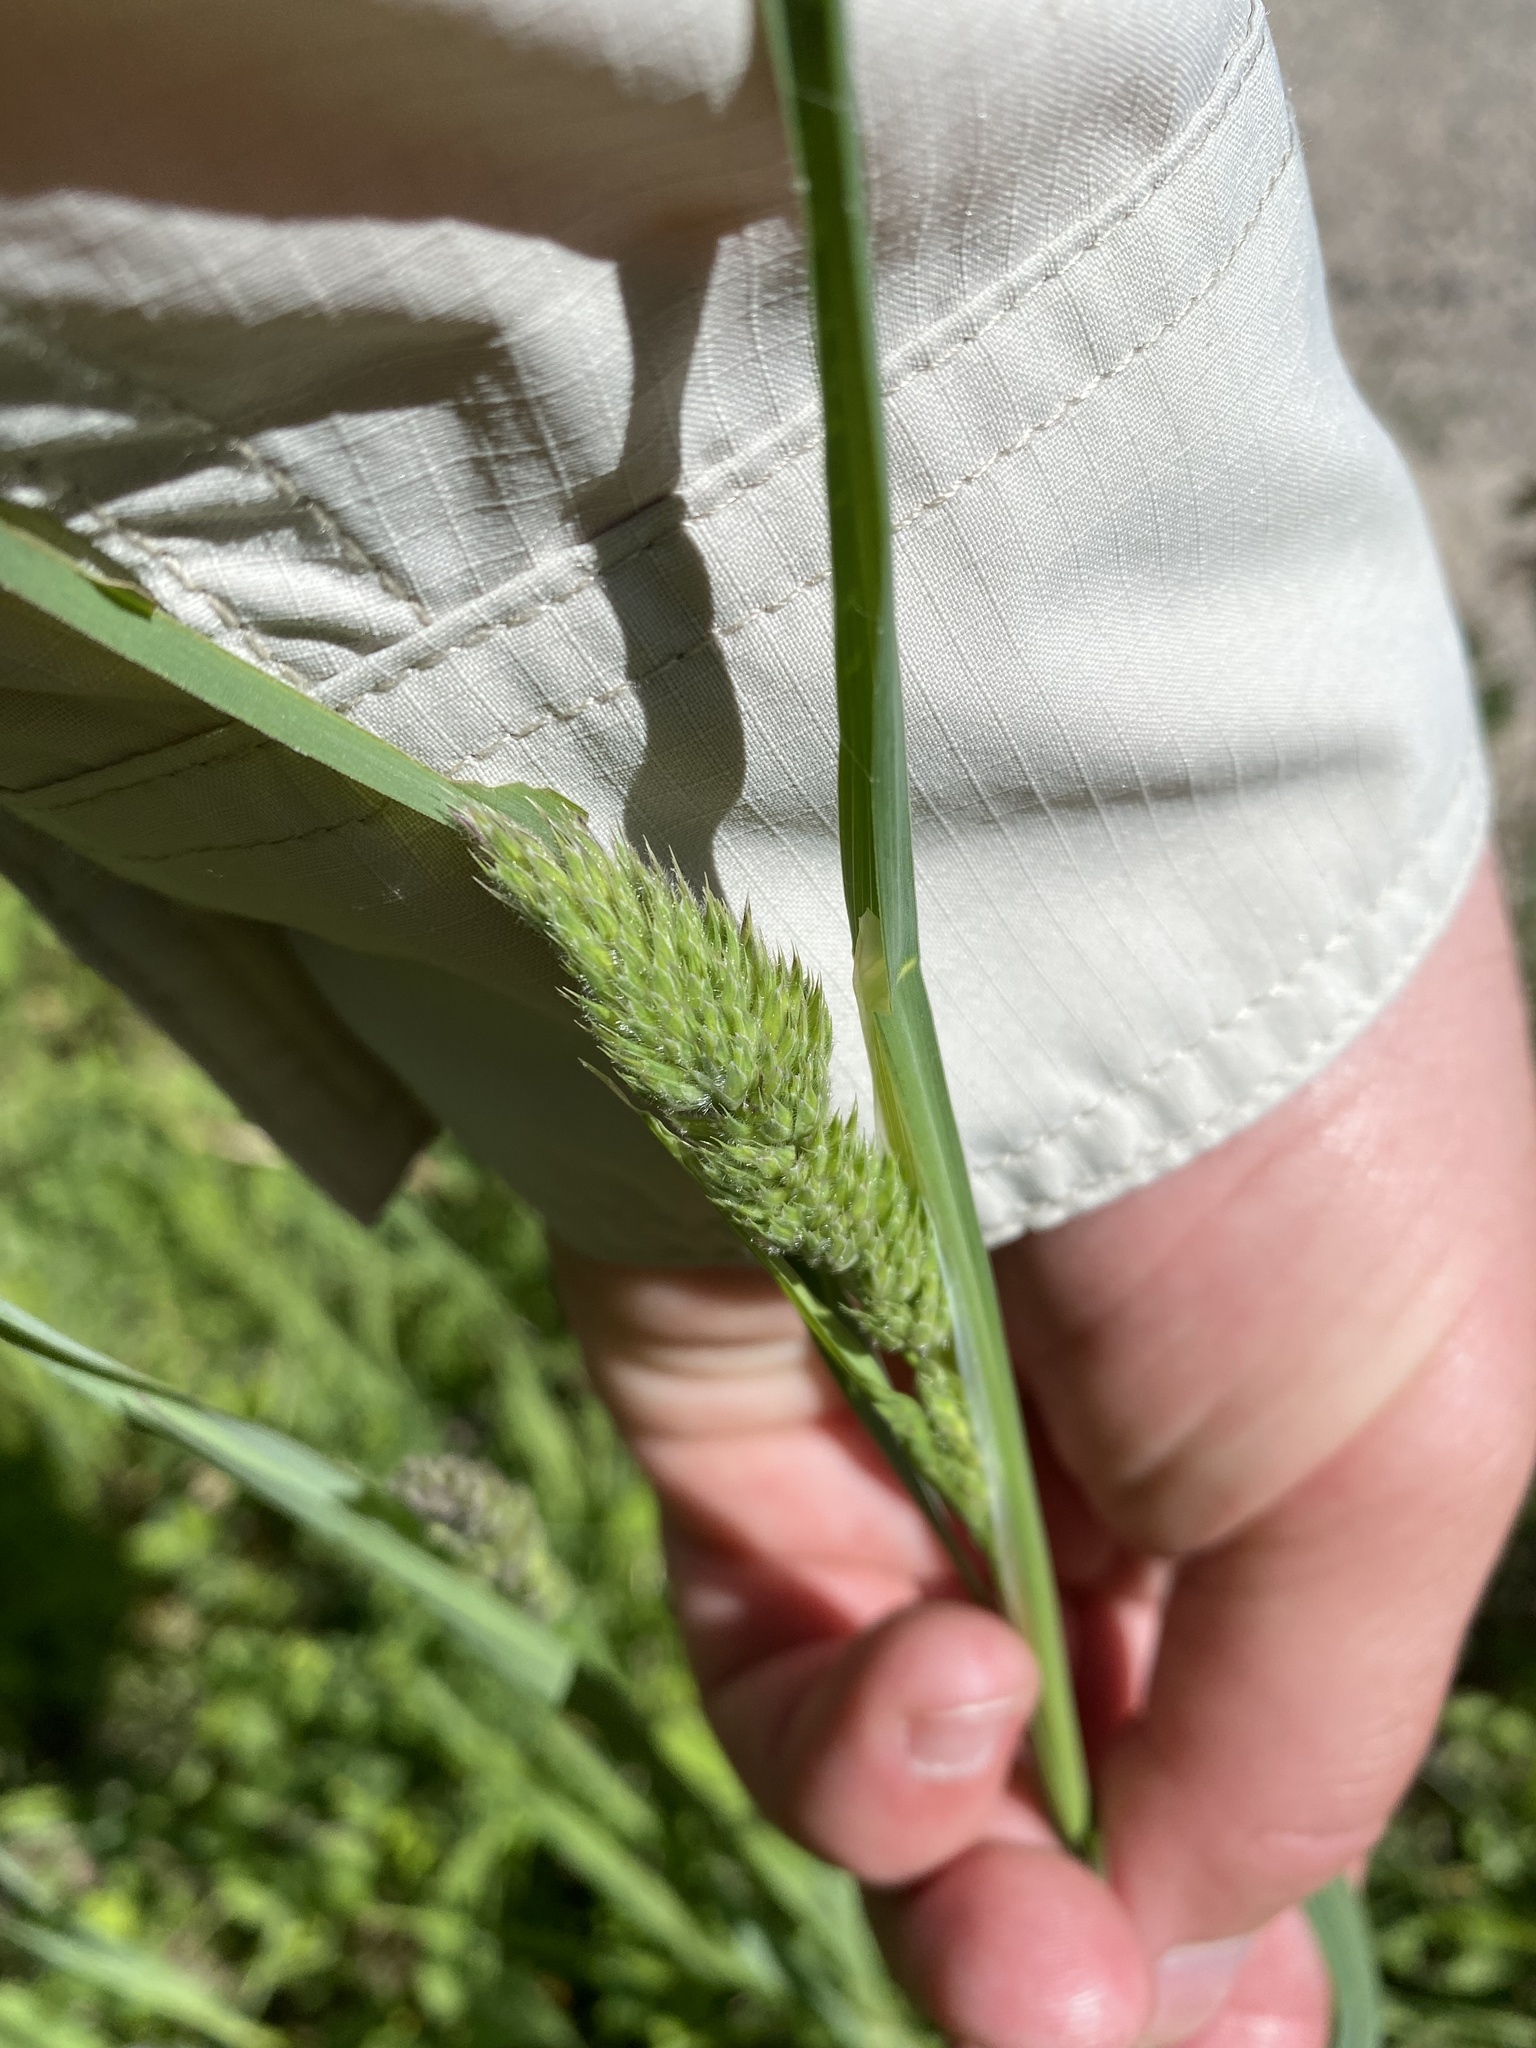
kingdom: Plantae
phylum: Tracheophyta
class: Liliopsida
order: Poales
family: Poaceae
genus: Dactylis
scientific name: Dactylis glomerata
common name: Orchardgrass
